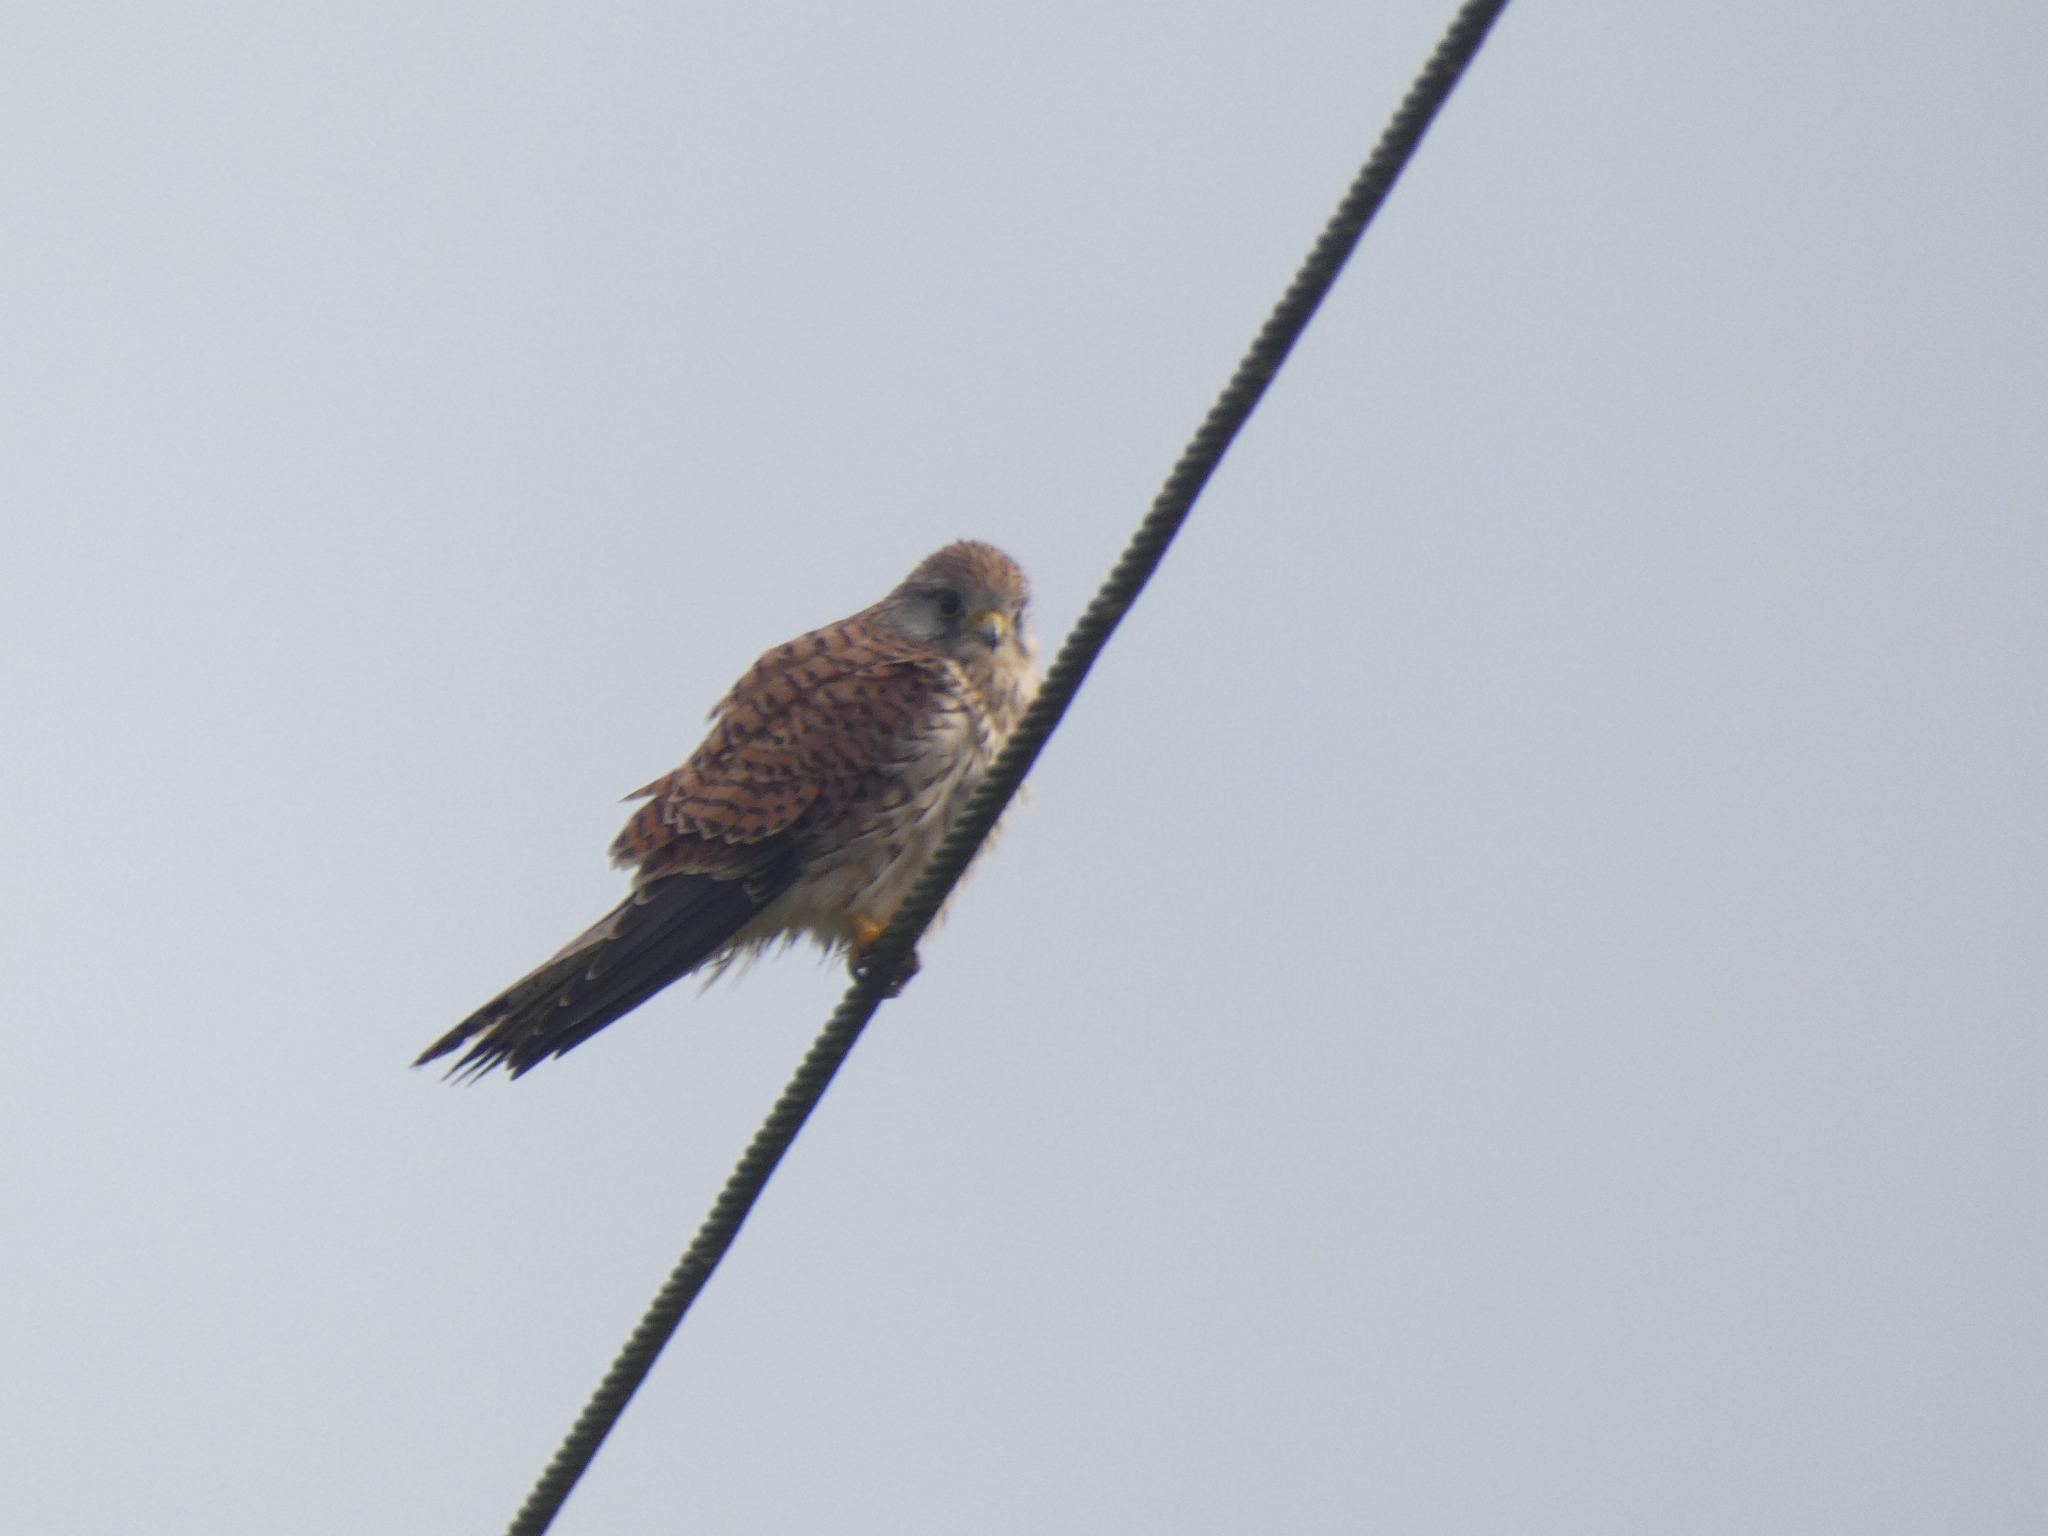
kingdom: Animalia
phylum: Chordata
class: Aves
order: Falconiformes
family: Falconidae
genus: Falco
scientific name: Falco tinnunculus
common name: Common kestrel
